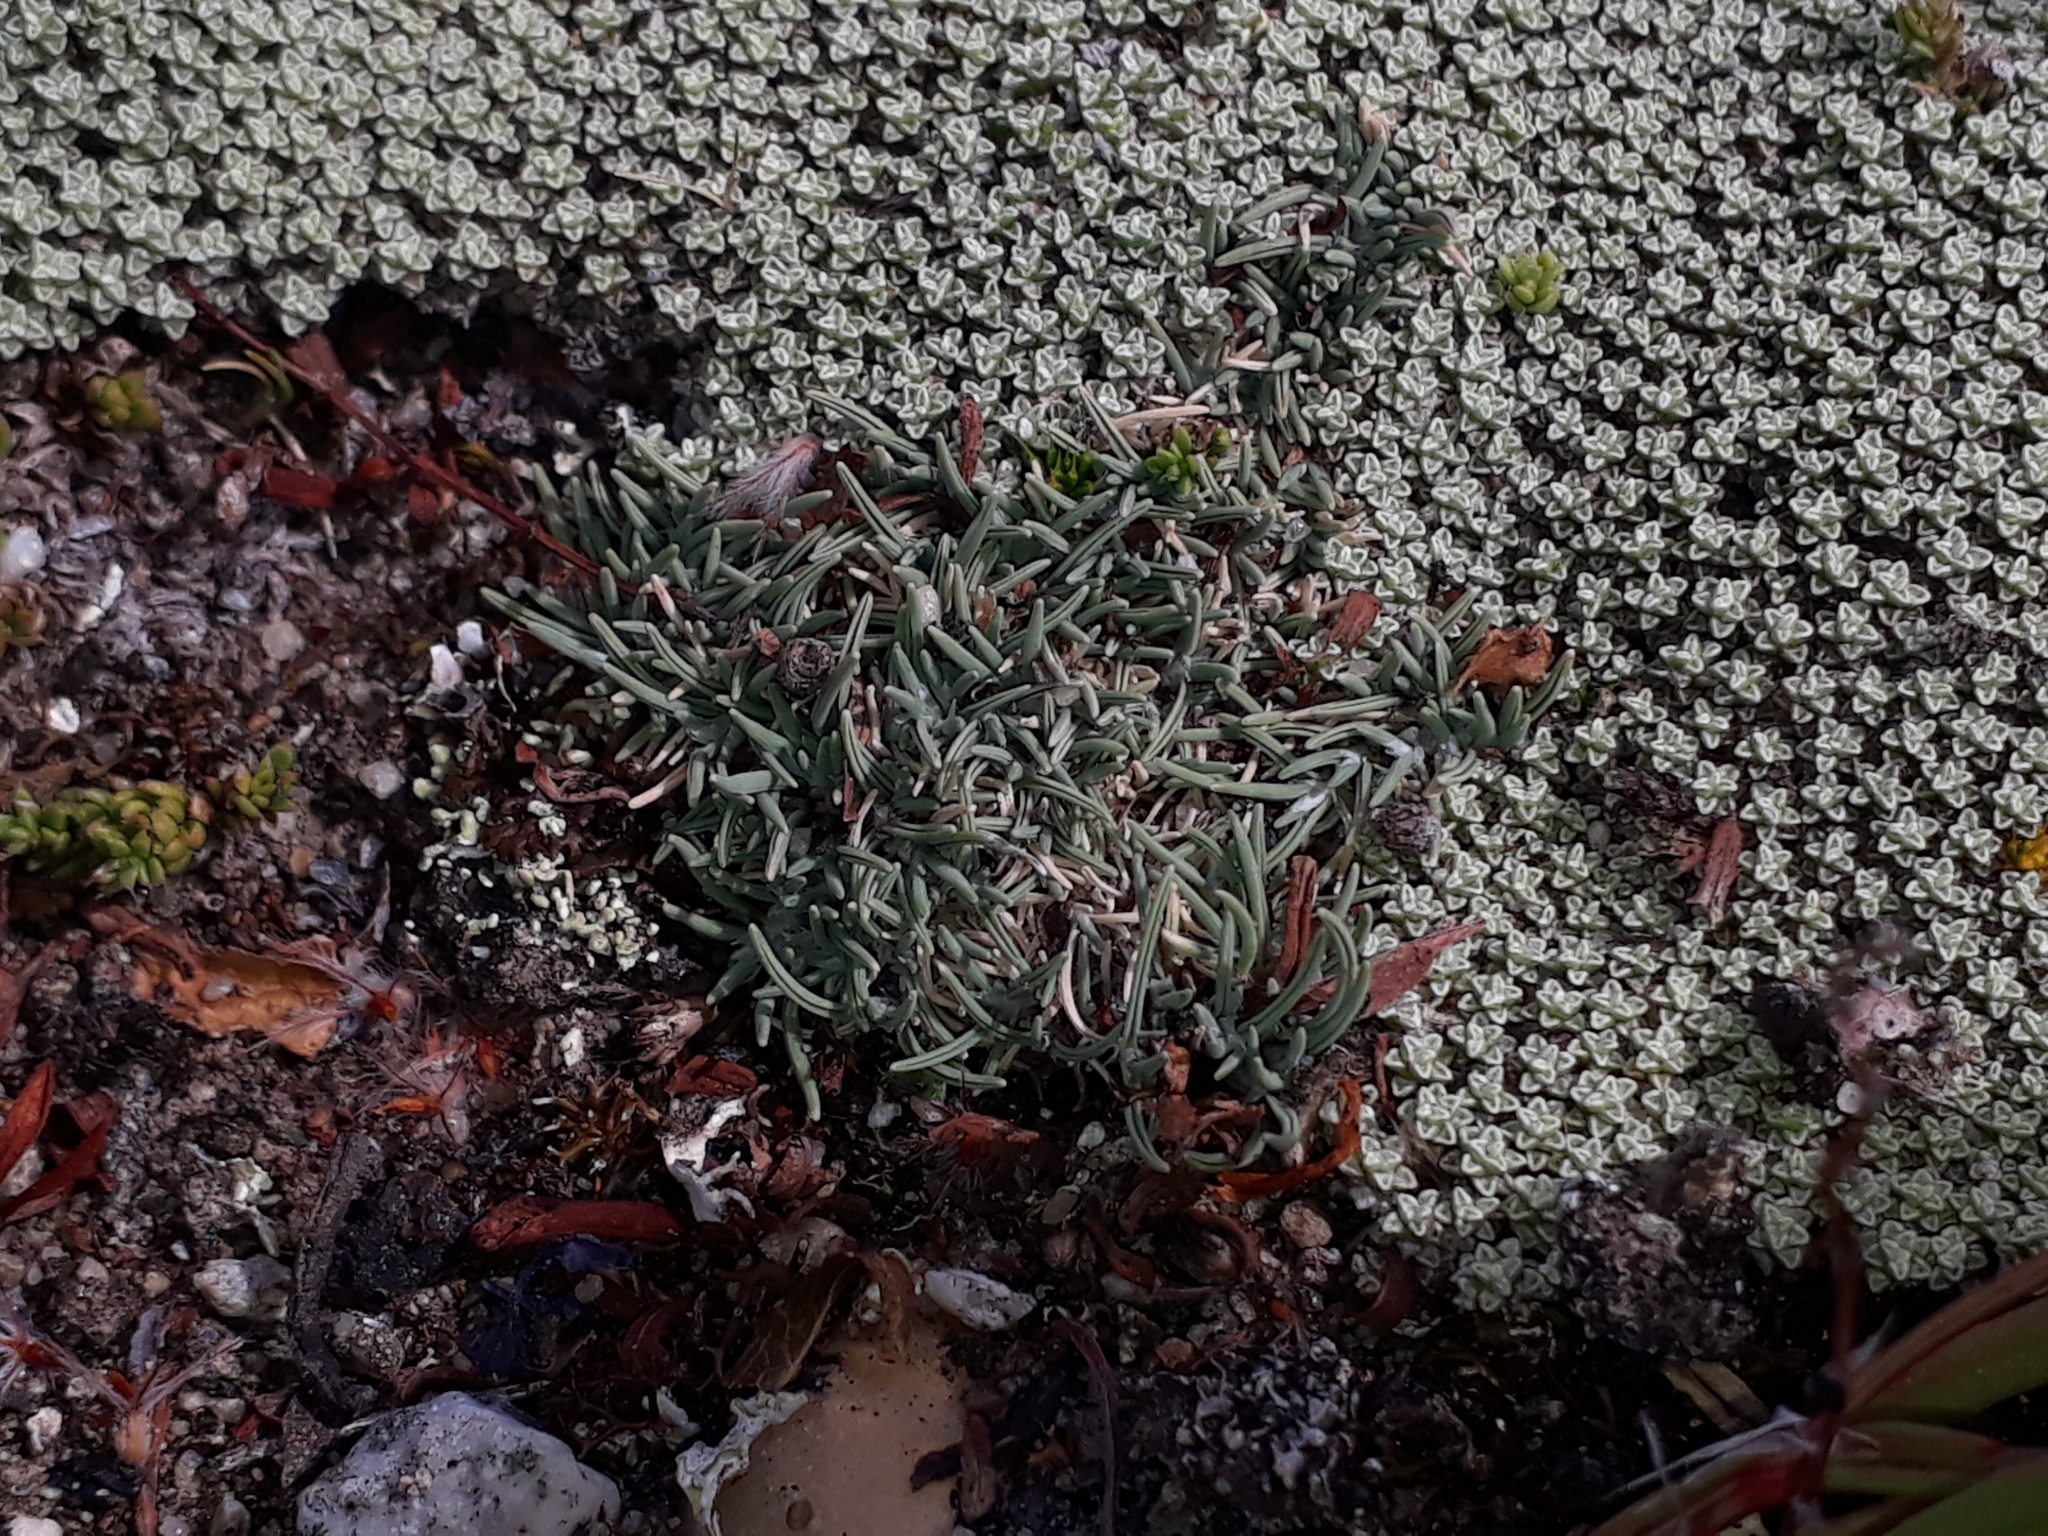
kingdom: Plantae
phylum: Tracheophyta
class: Liliopsida
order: Poales
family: Poaceae
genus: Agrostis
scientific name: Agrostis muscosa
